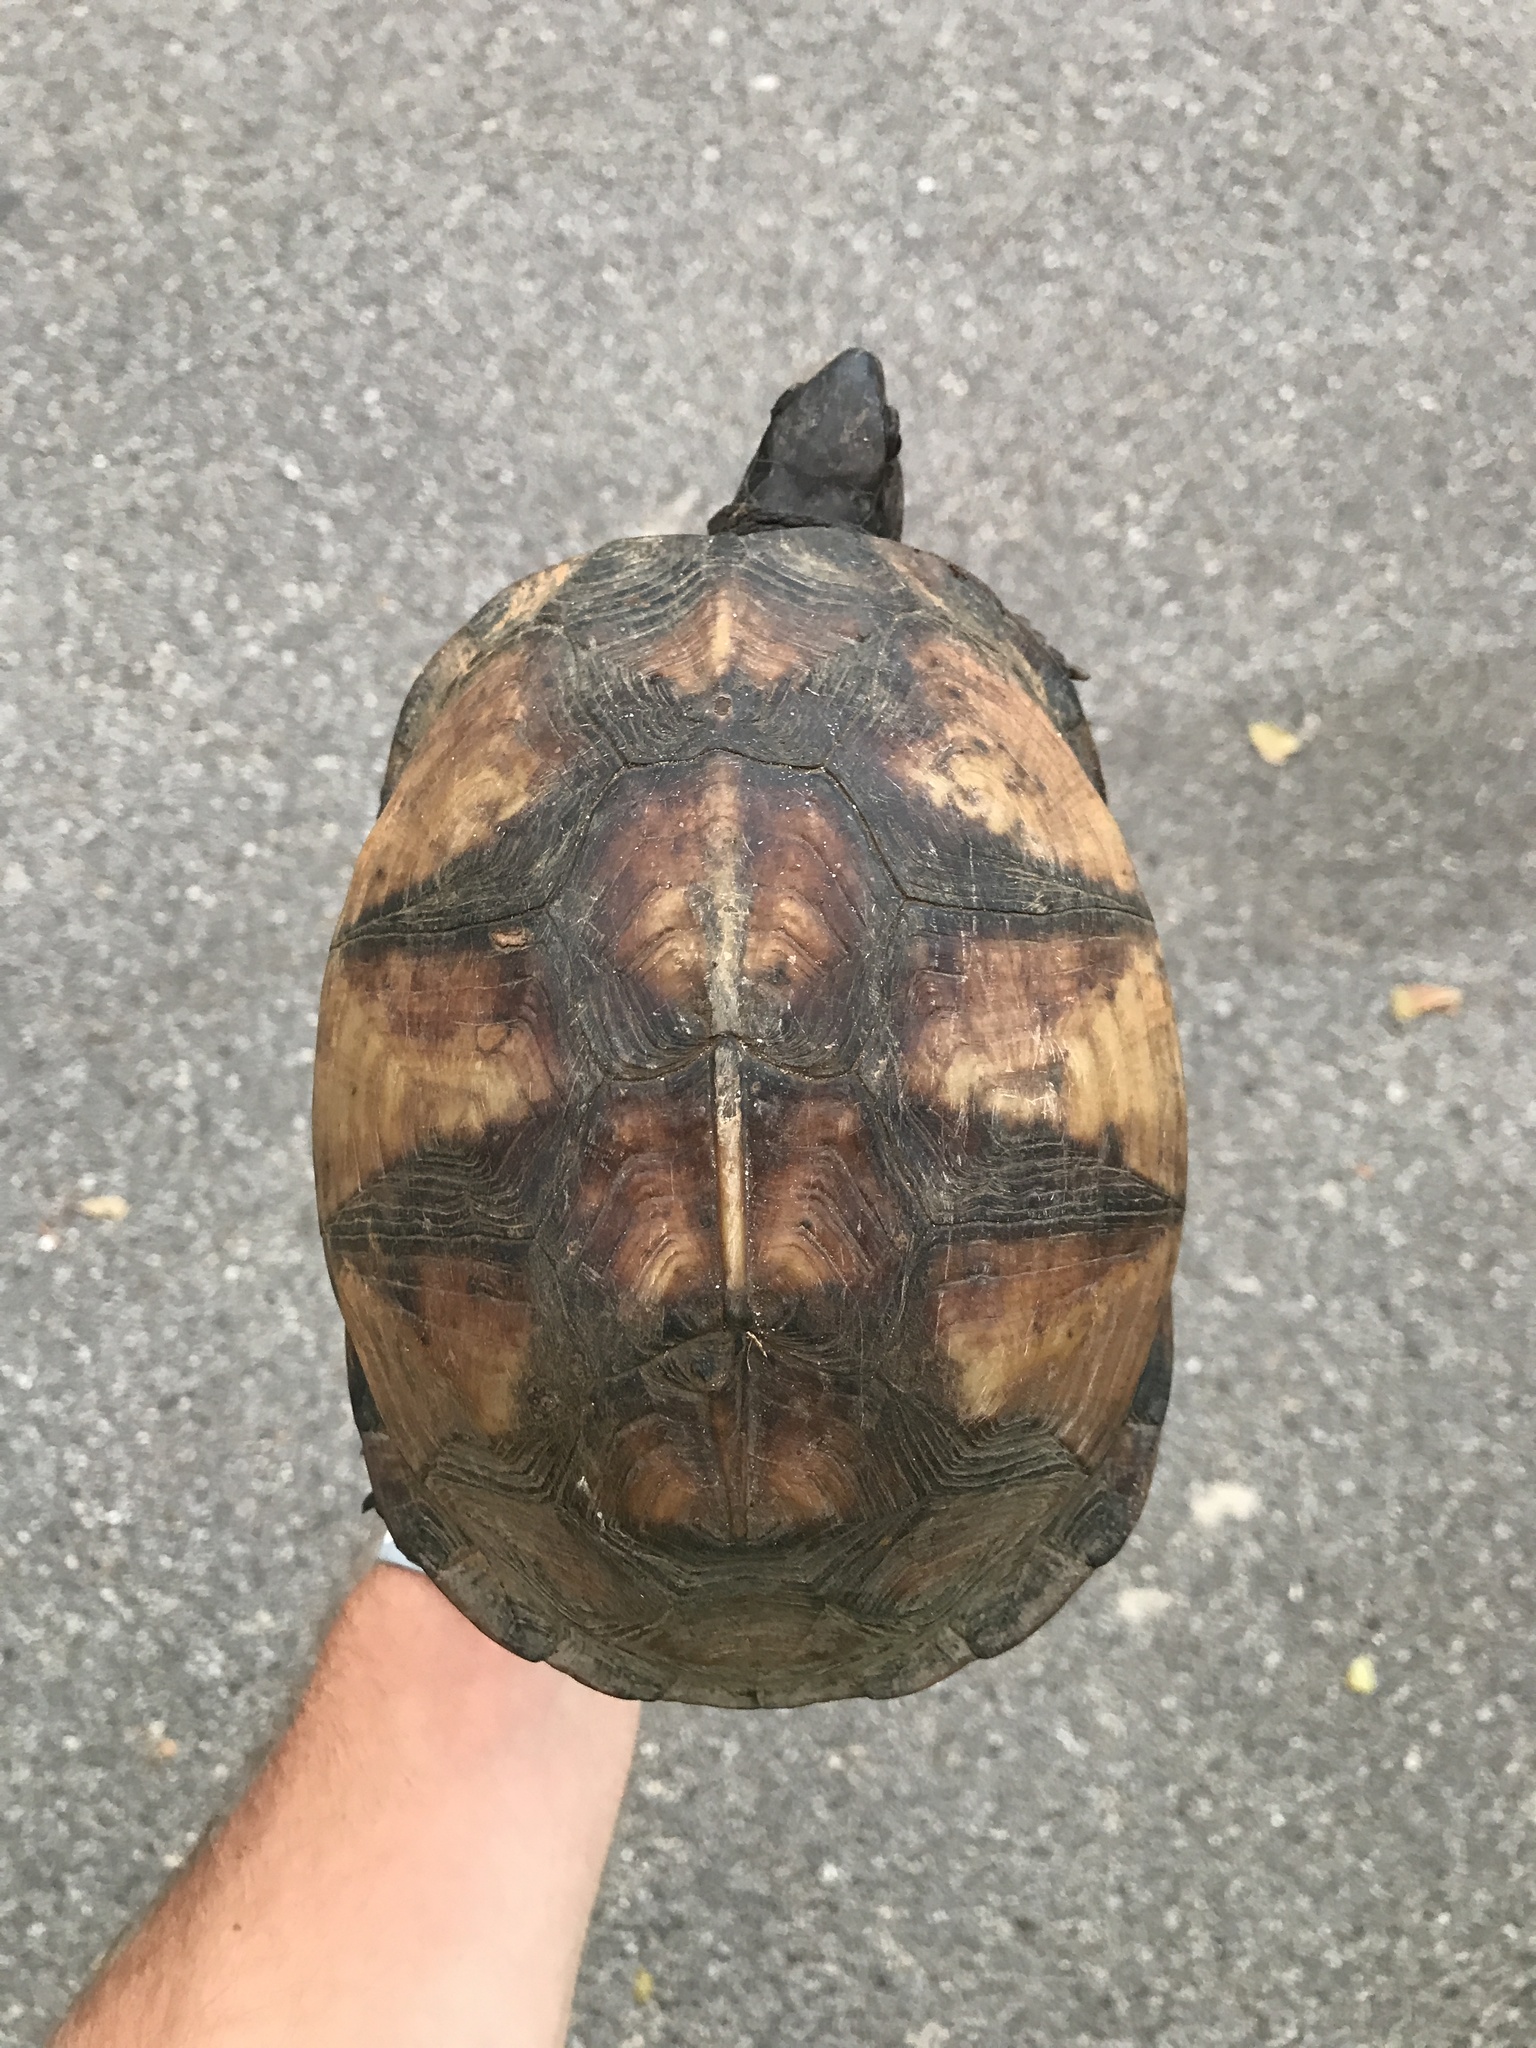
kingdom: Animalia
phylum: Chordata
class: Testudines
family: Emydidae
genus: Terrapene
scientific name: Terrapene carolina
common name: Common box turtle
